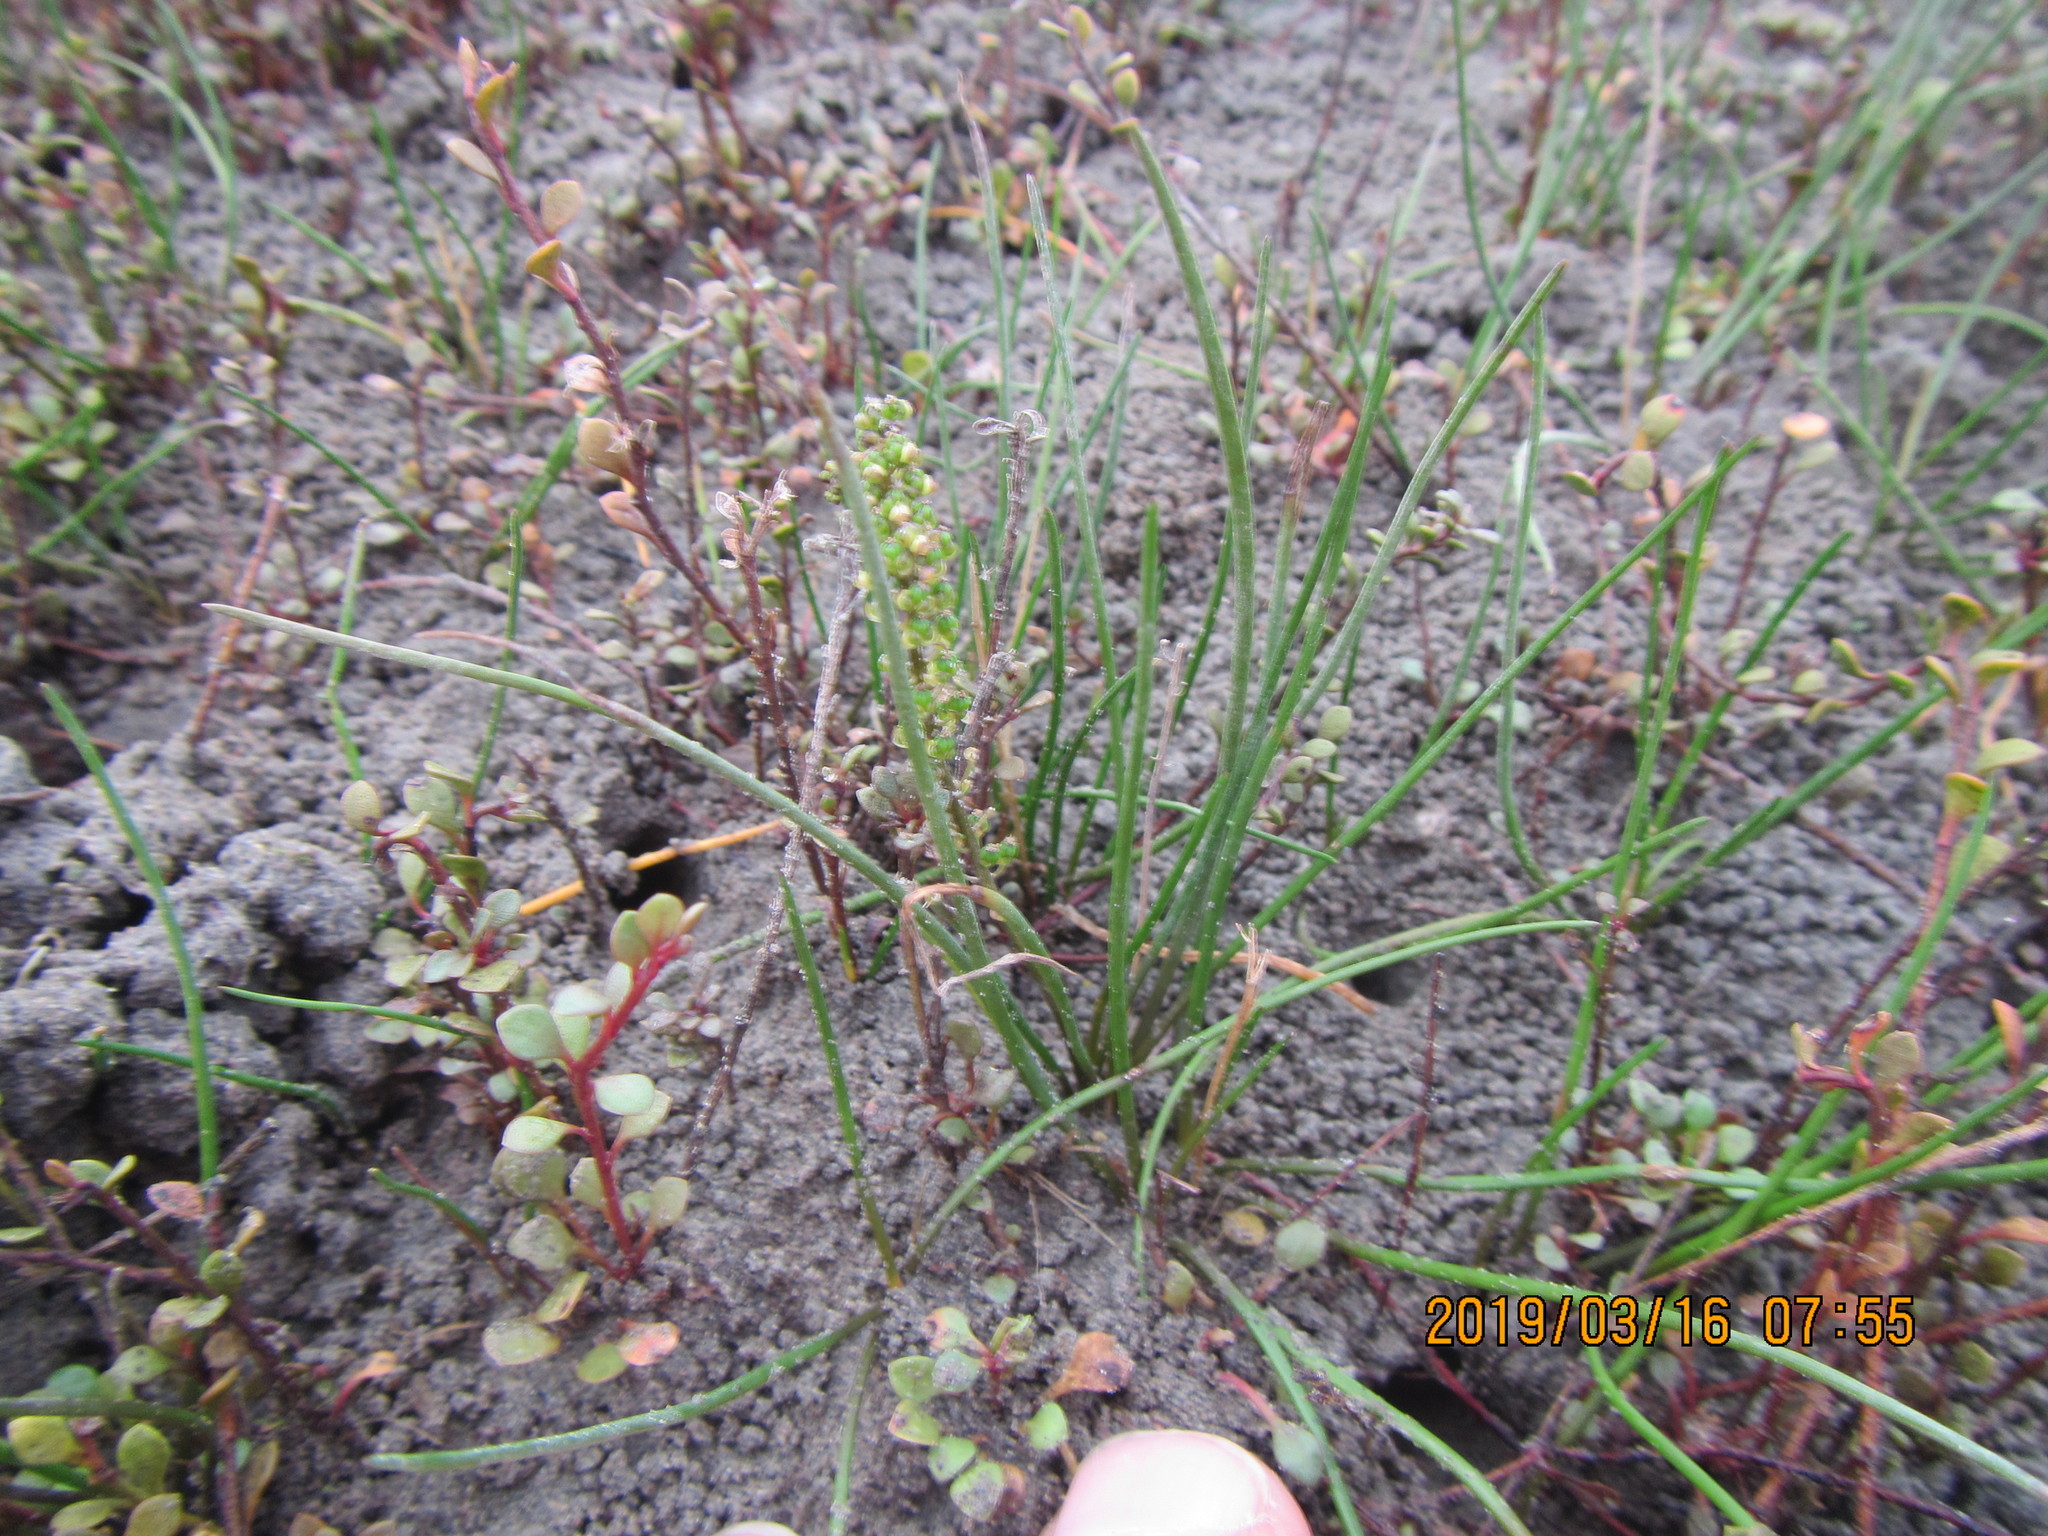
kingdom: Plantae
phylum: Tracheophyta
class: Liliopsida
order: Alismatales
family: Juncaginaceae
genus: Triglochin
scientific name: Triglochin striata
